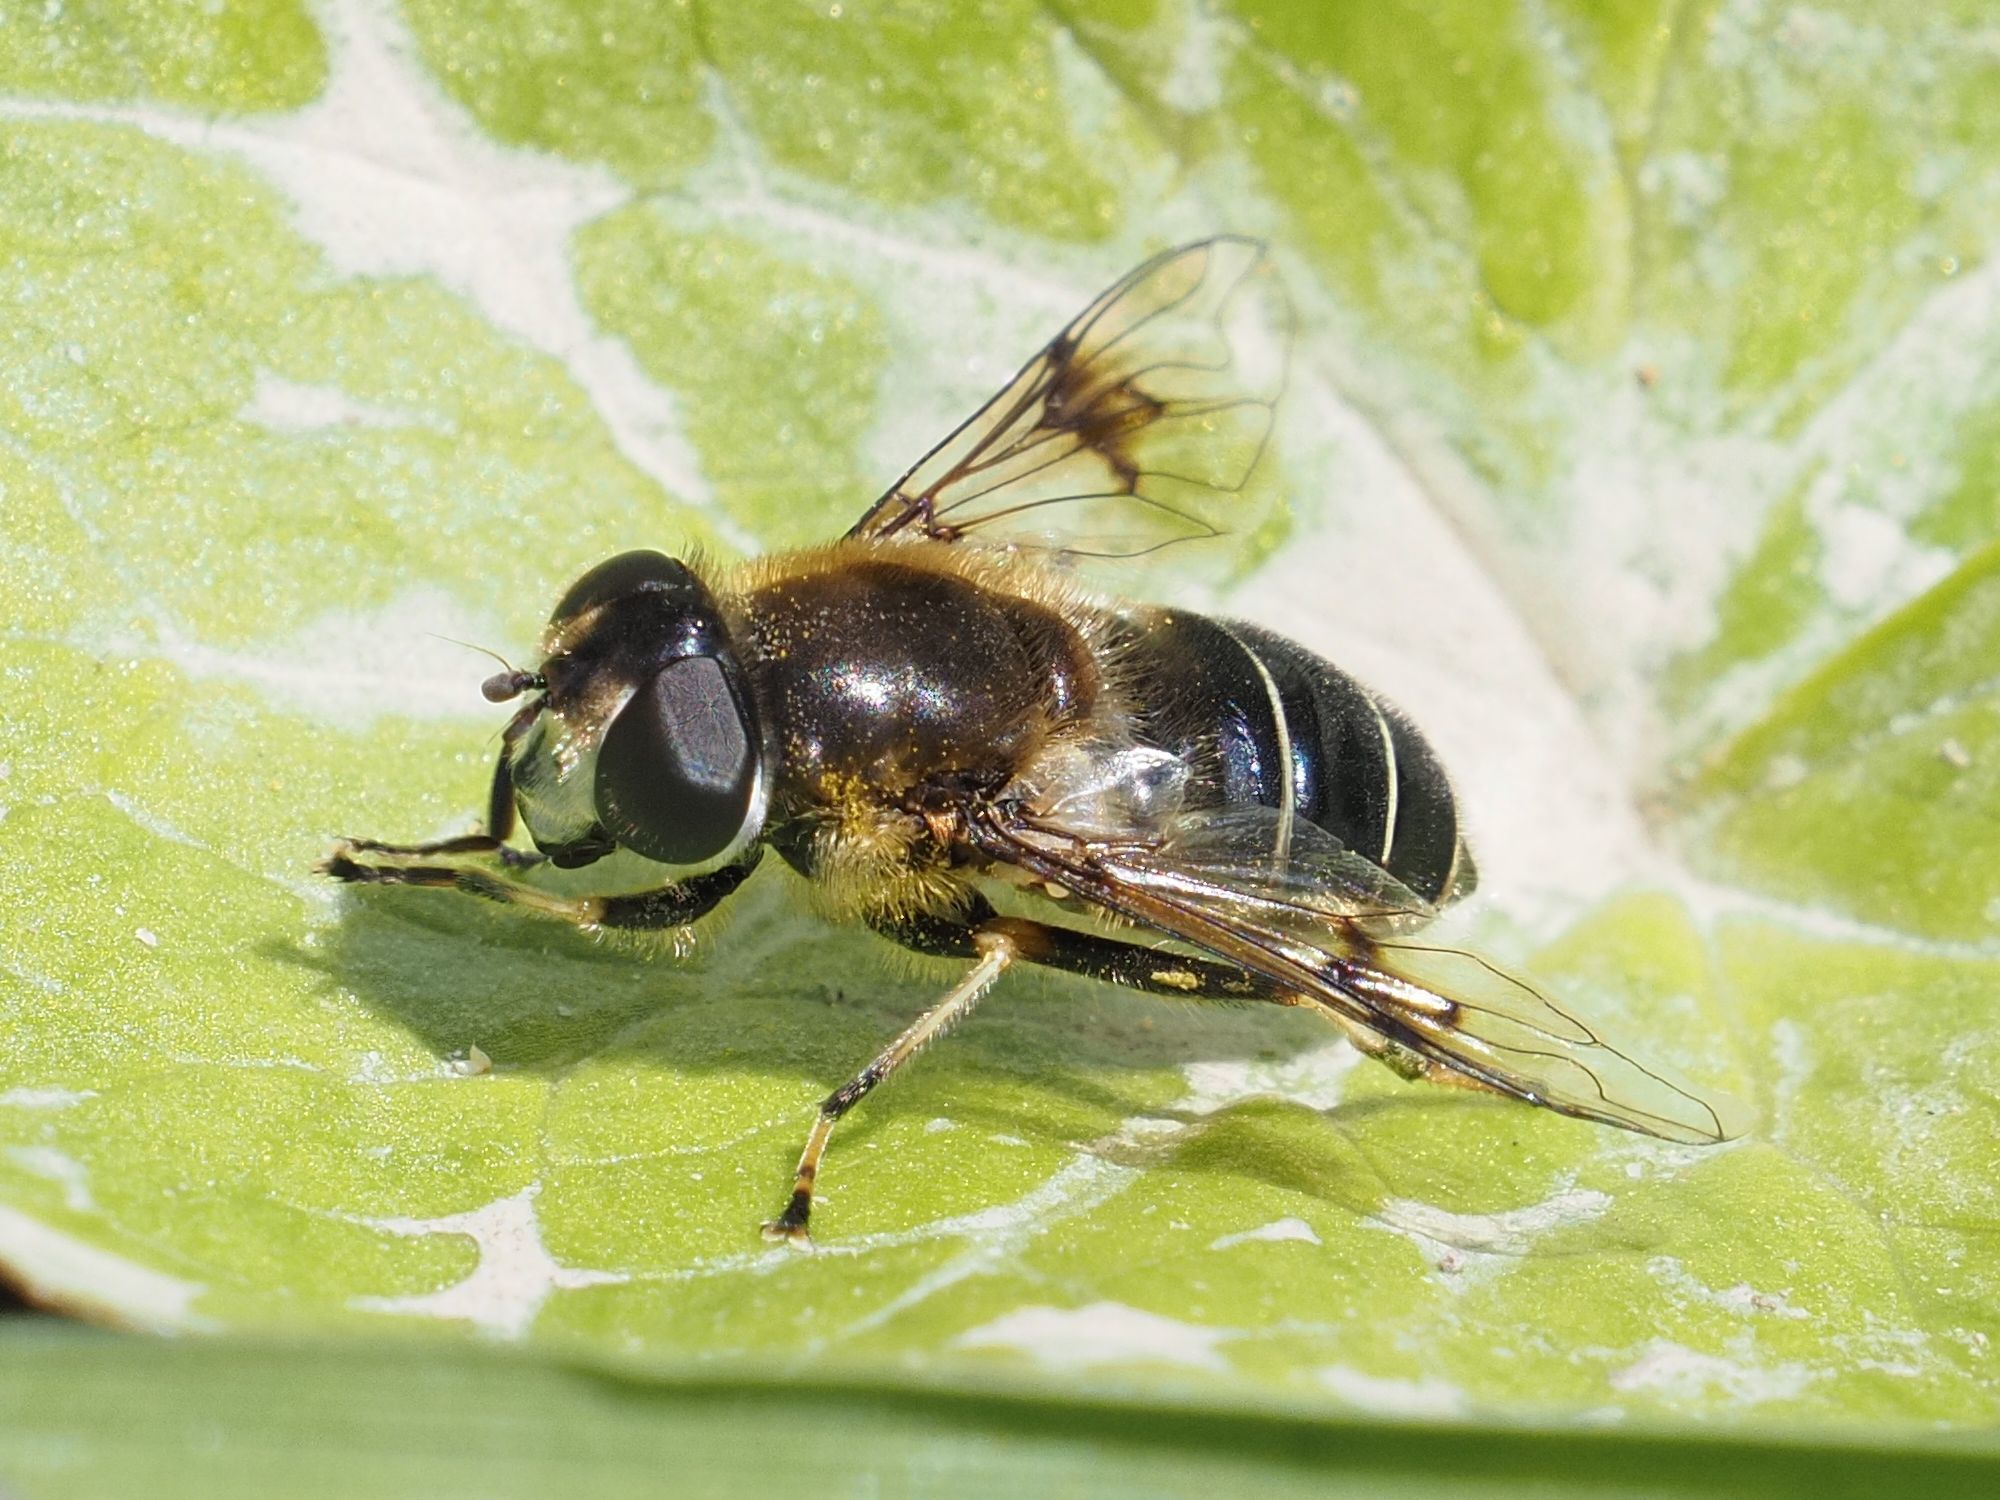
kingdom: Animalia
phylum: Arthropoda
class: Insecta
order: Diptera
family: Syrphidae
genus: Eristalis
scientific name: Eristalis rupium
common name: Hover fly
